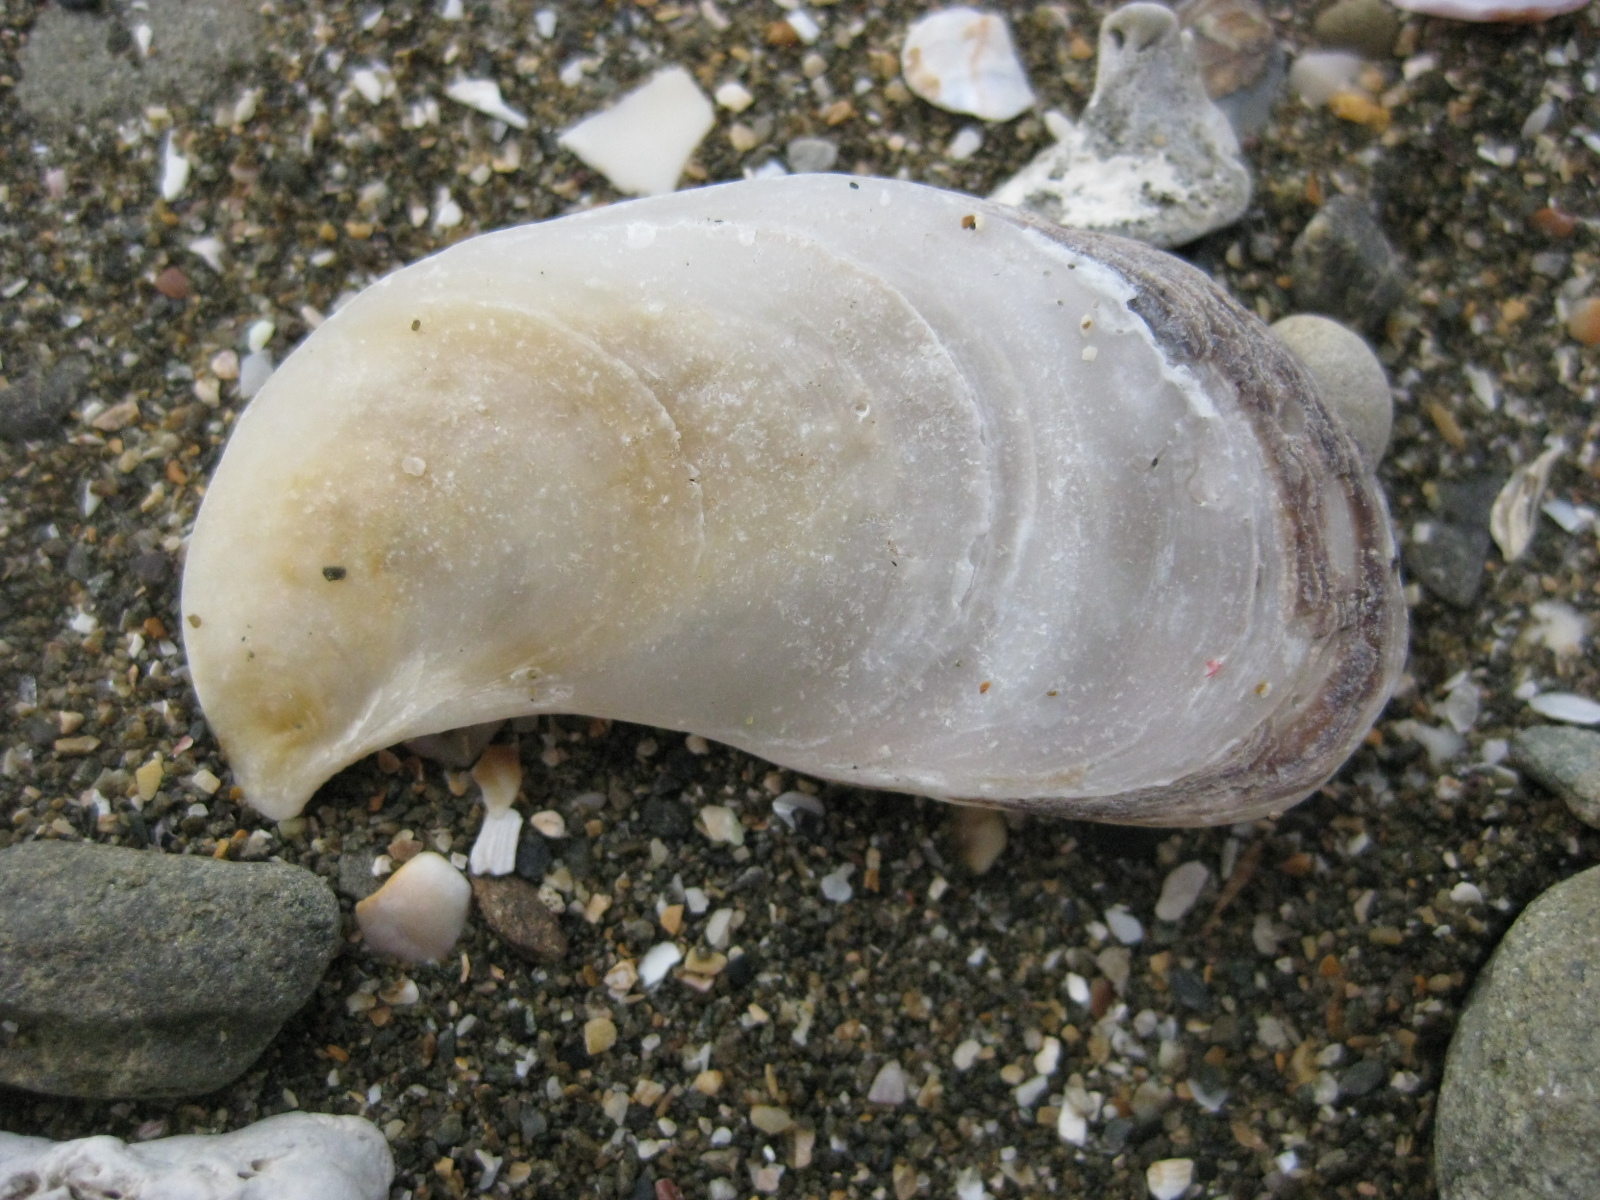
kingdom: Animalia
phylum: Mollusca
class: Bivalvia
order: Ostreida
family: Ostreidae
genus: Ostrea
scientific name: Ostrea chilensis
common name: Chilean oyster
